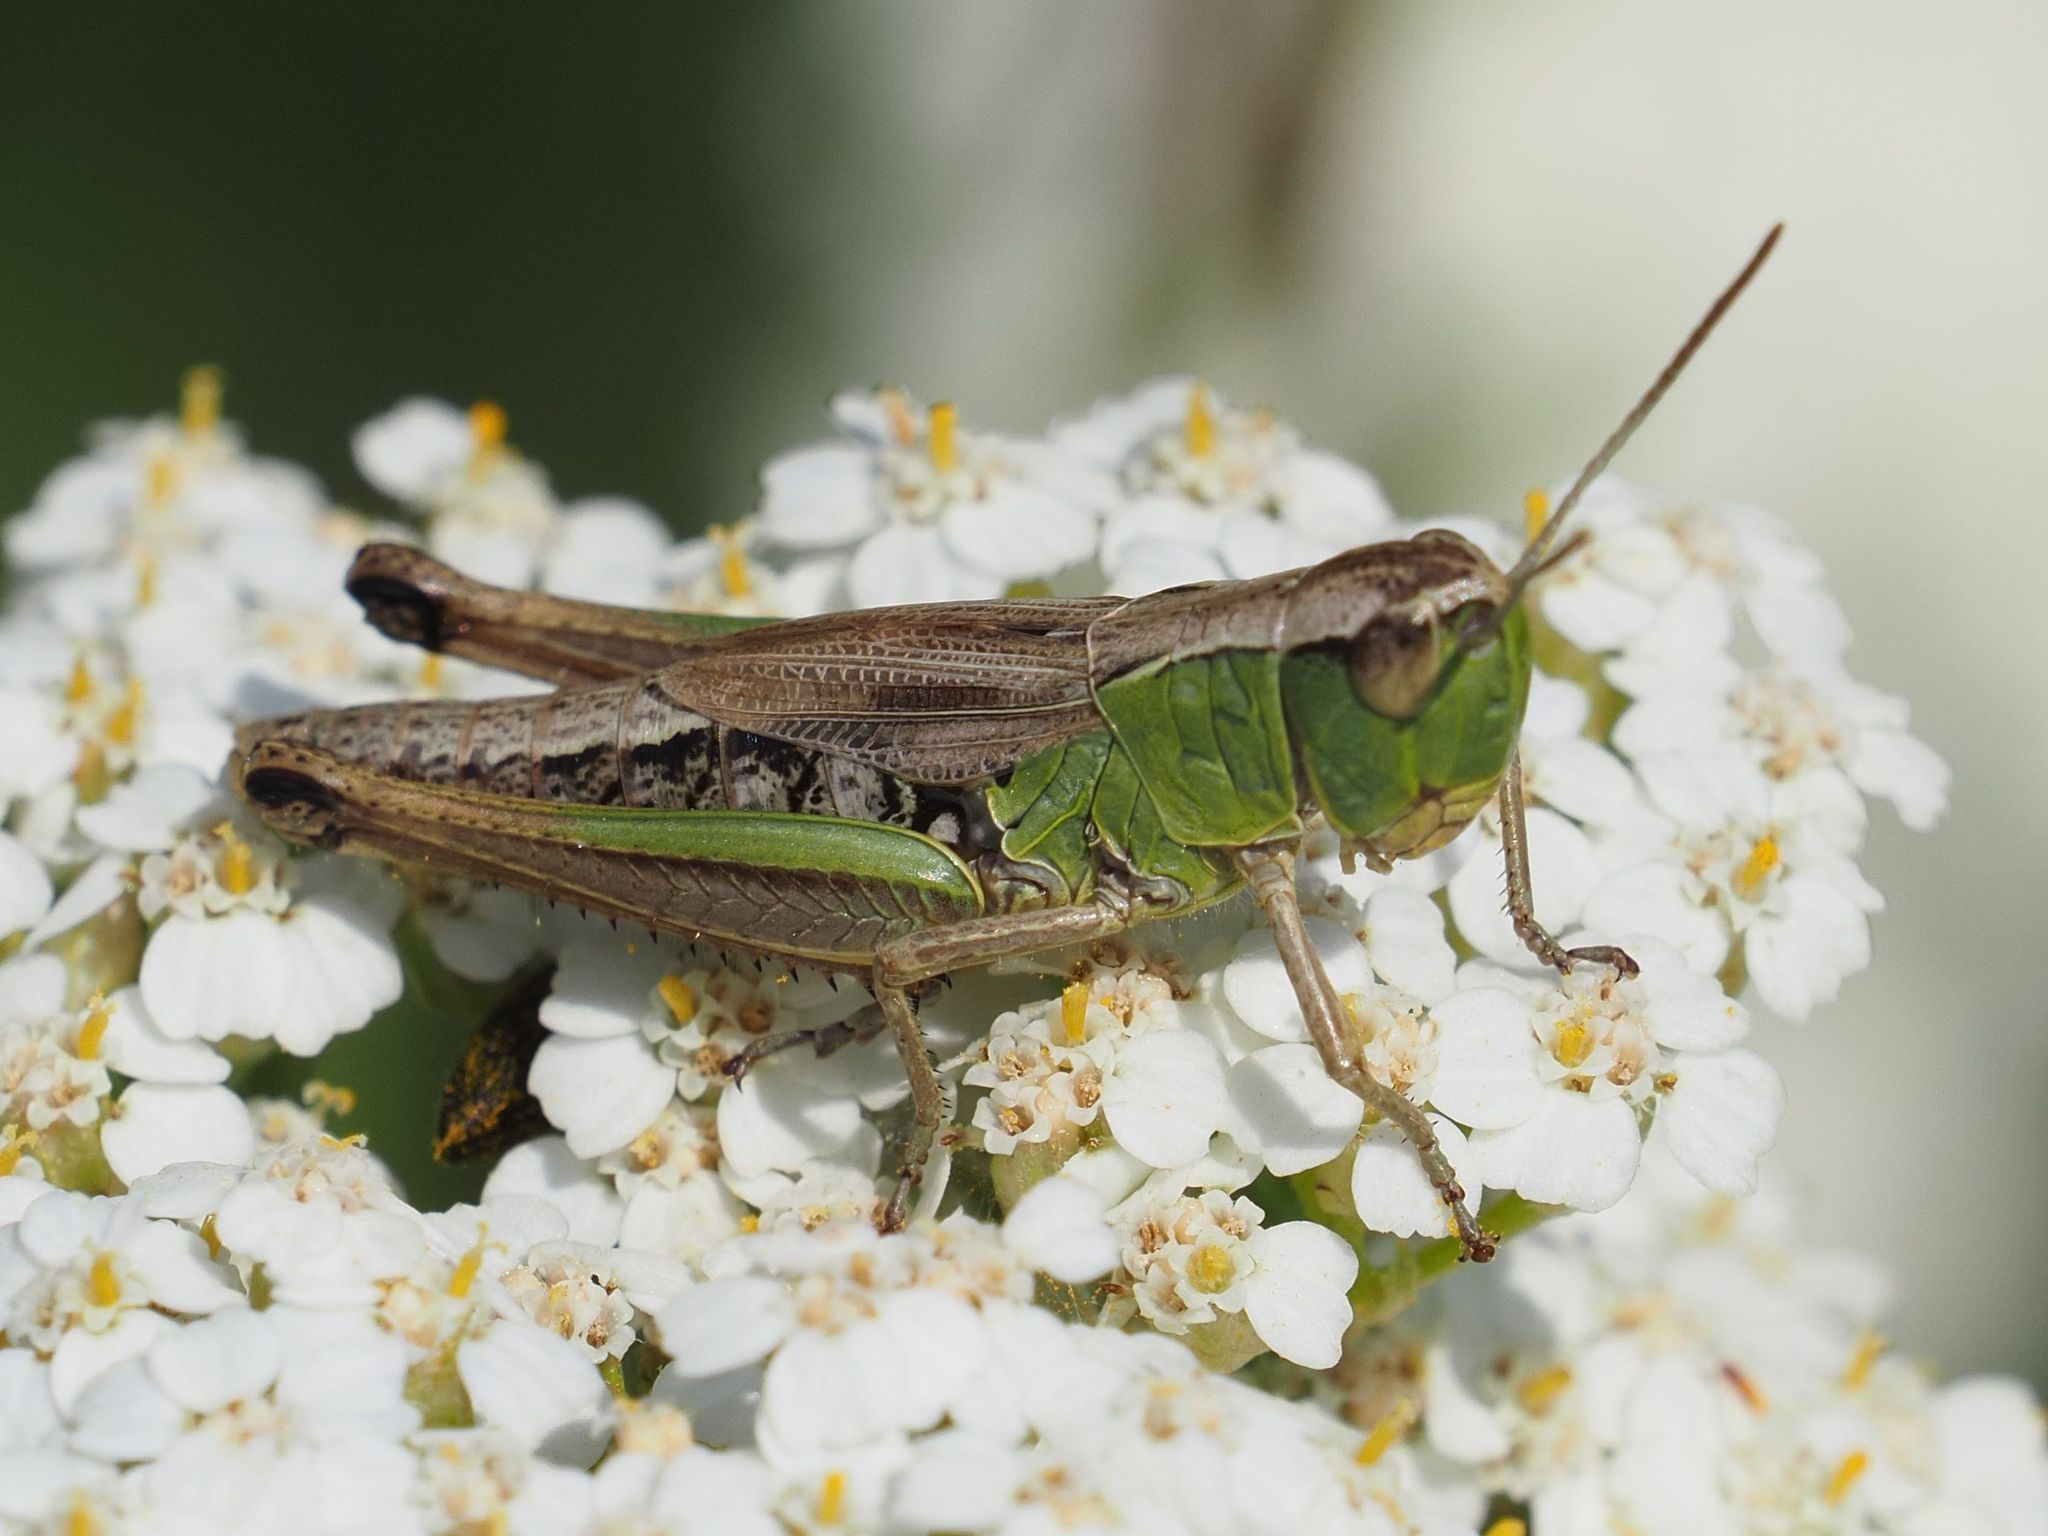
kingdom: Animalia
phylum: Arthropoda
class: Insecta
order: Orthoptera
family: Acrididae
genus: Pseudochorthippus
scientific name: Pseudochorthippus parallelus
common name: Meadow grasshopper
